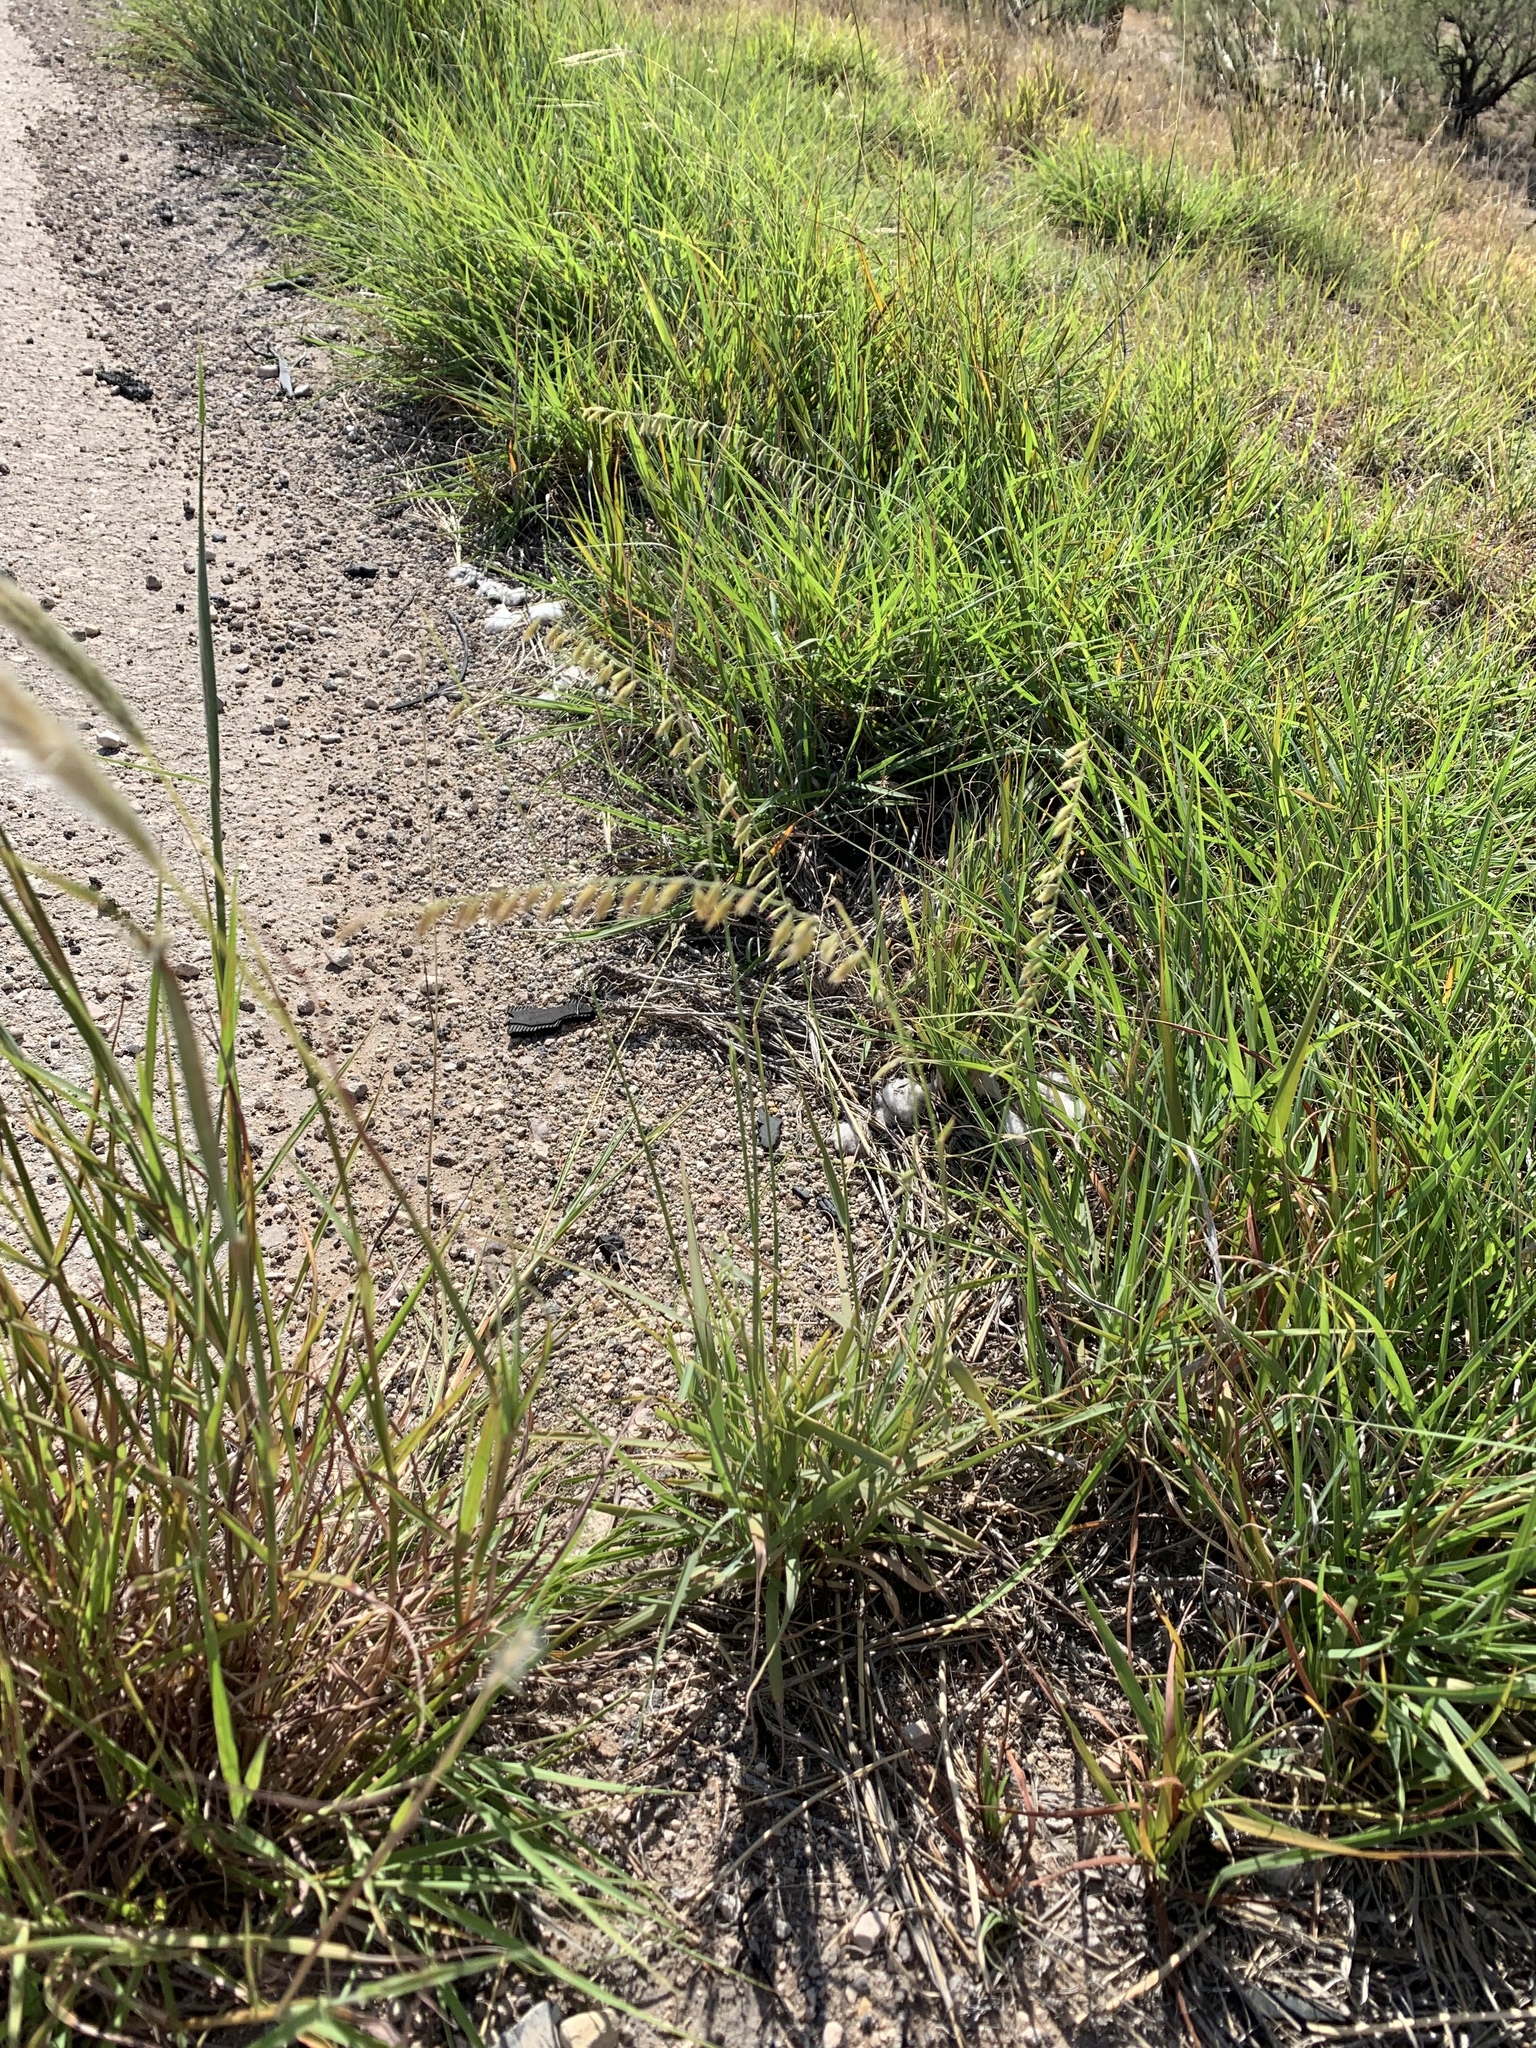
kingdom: Plantae
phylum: Tracheophyta
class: Liliopsida
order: Poales
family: Poaceae
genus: Bouteloua
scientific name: Bouteloua curtipendula
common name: Side-oats grama
